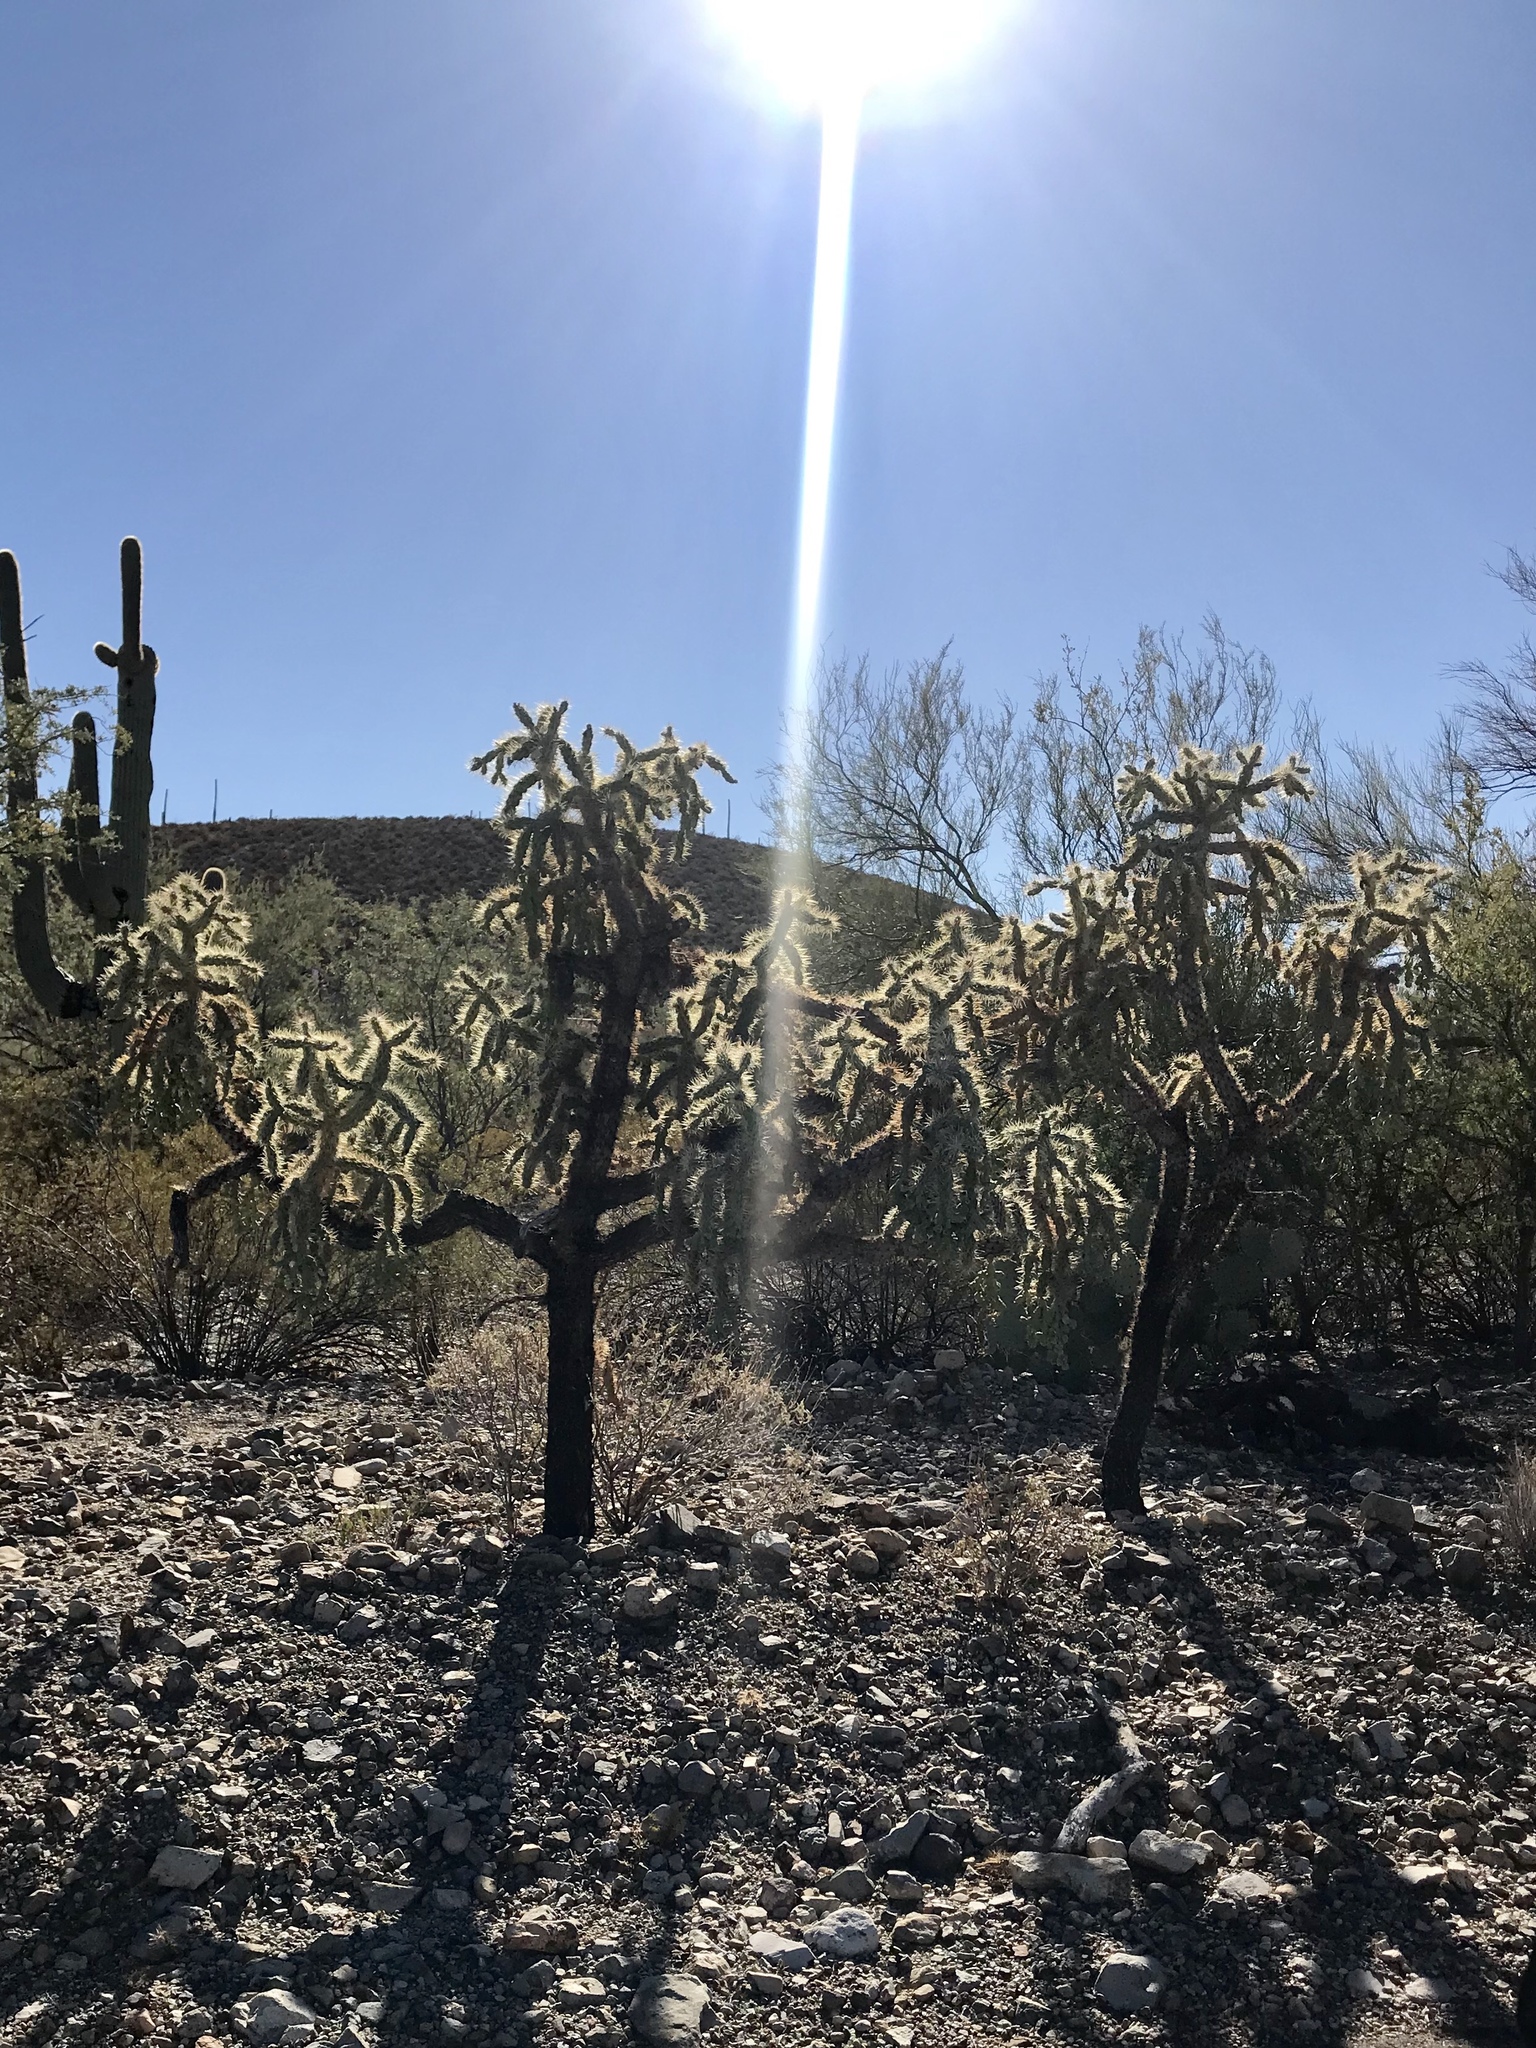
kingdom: Plantae
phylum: Tracheophyta
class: Magnoliopsida
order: Caryophyllales
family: Cactaceae
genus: Cylindropuntia
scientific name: Cylindropuntia fulgida
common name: Jumping cholla
